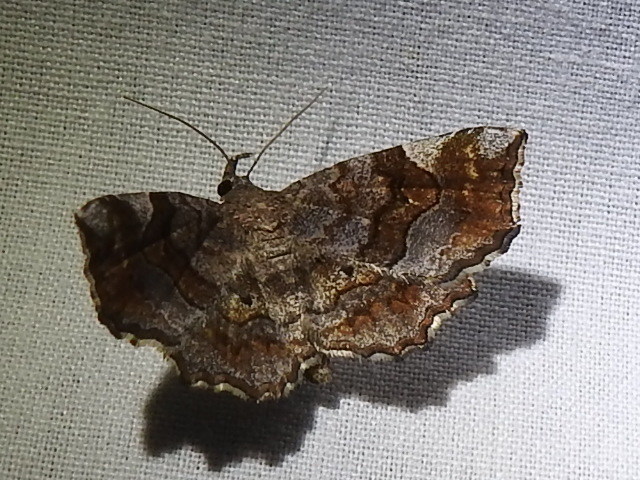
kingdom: Animalia
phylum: Arthropoda
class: Insecta
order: Lepidoptera
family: Erebidae
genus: Pangrapta
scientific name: Pangrapta decoralis
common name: Decorated owlet
